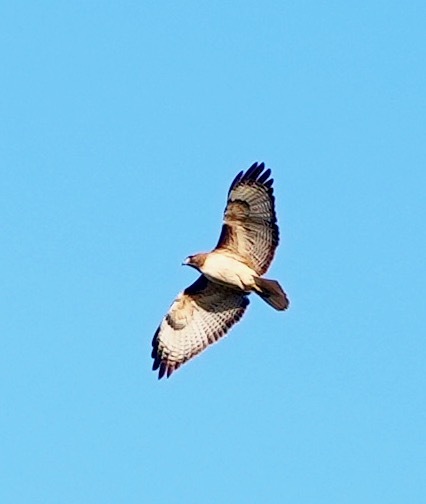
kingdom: Animalia
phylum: Chordata
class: Aves
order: Accipitriformes
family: Accipitridae
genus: Buteo
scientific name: Buteo jamaicensis
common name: Red-tailed hawk
